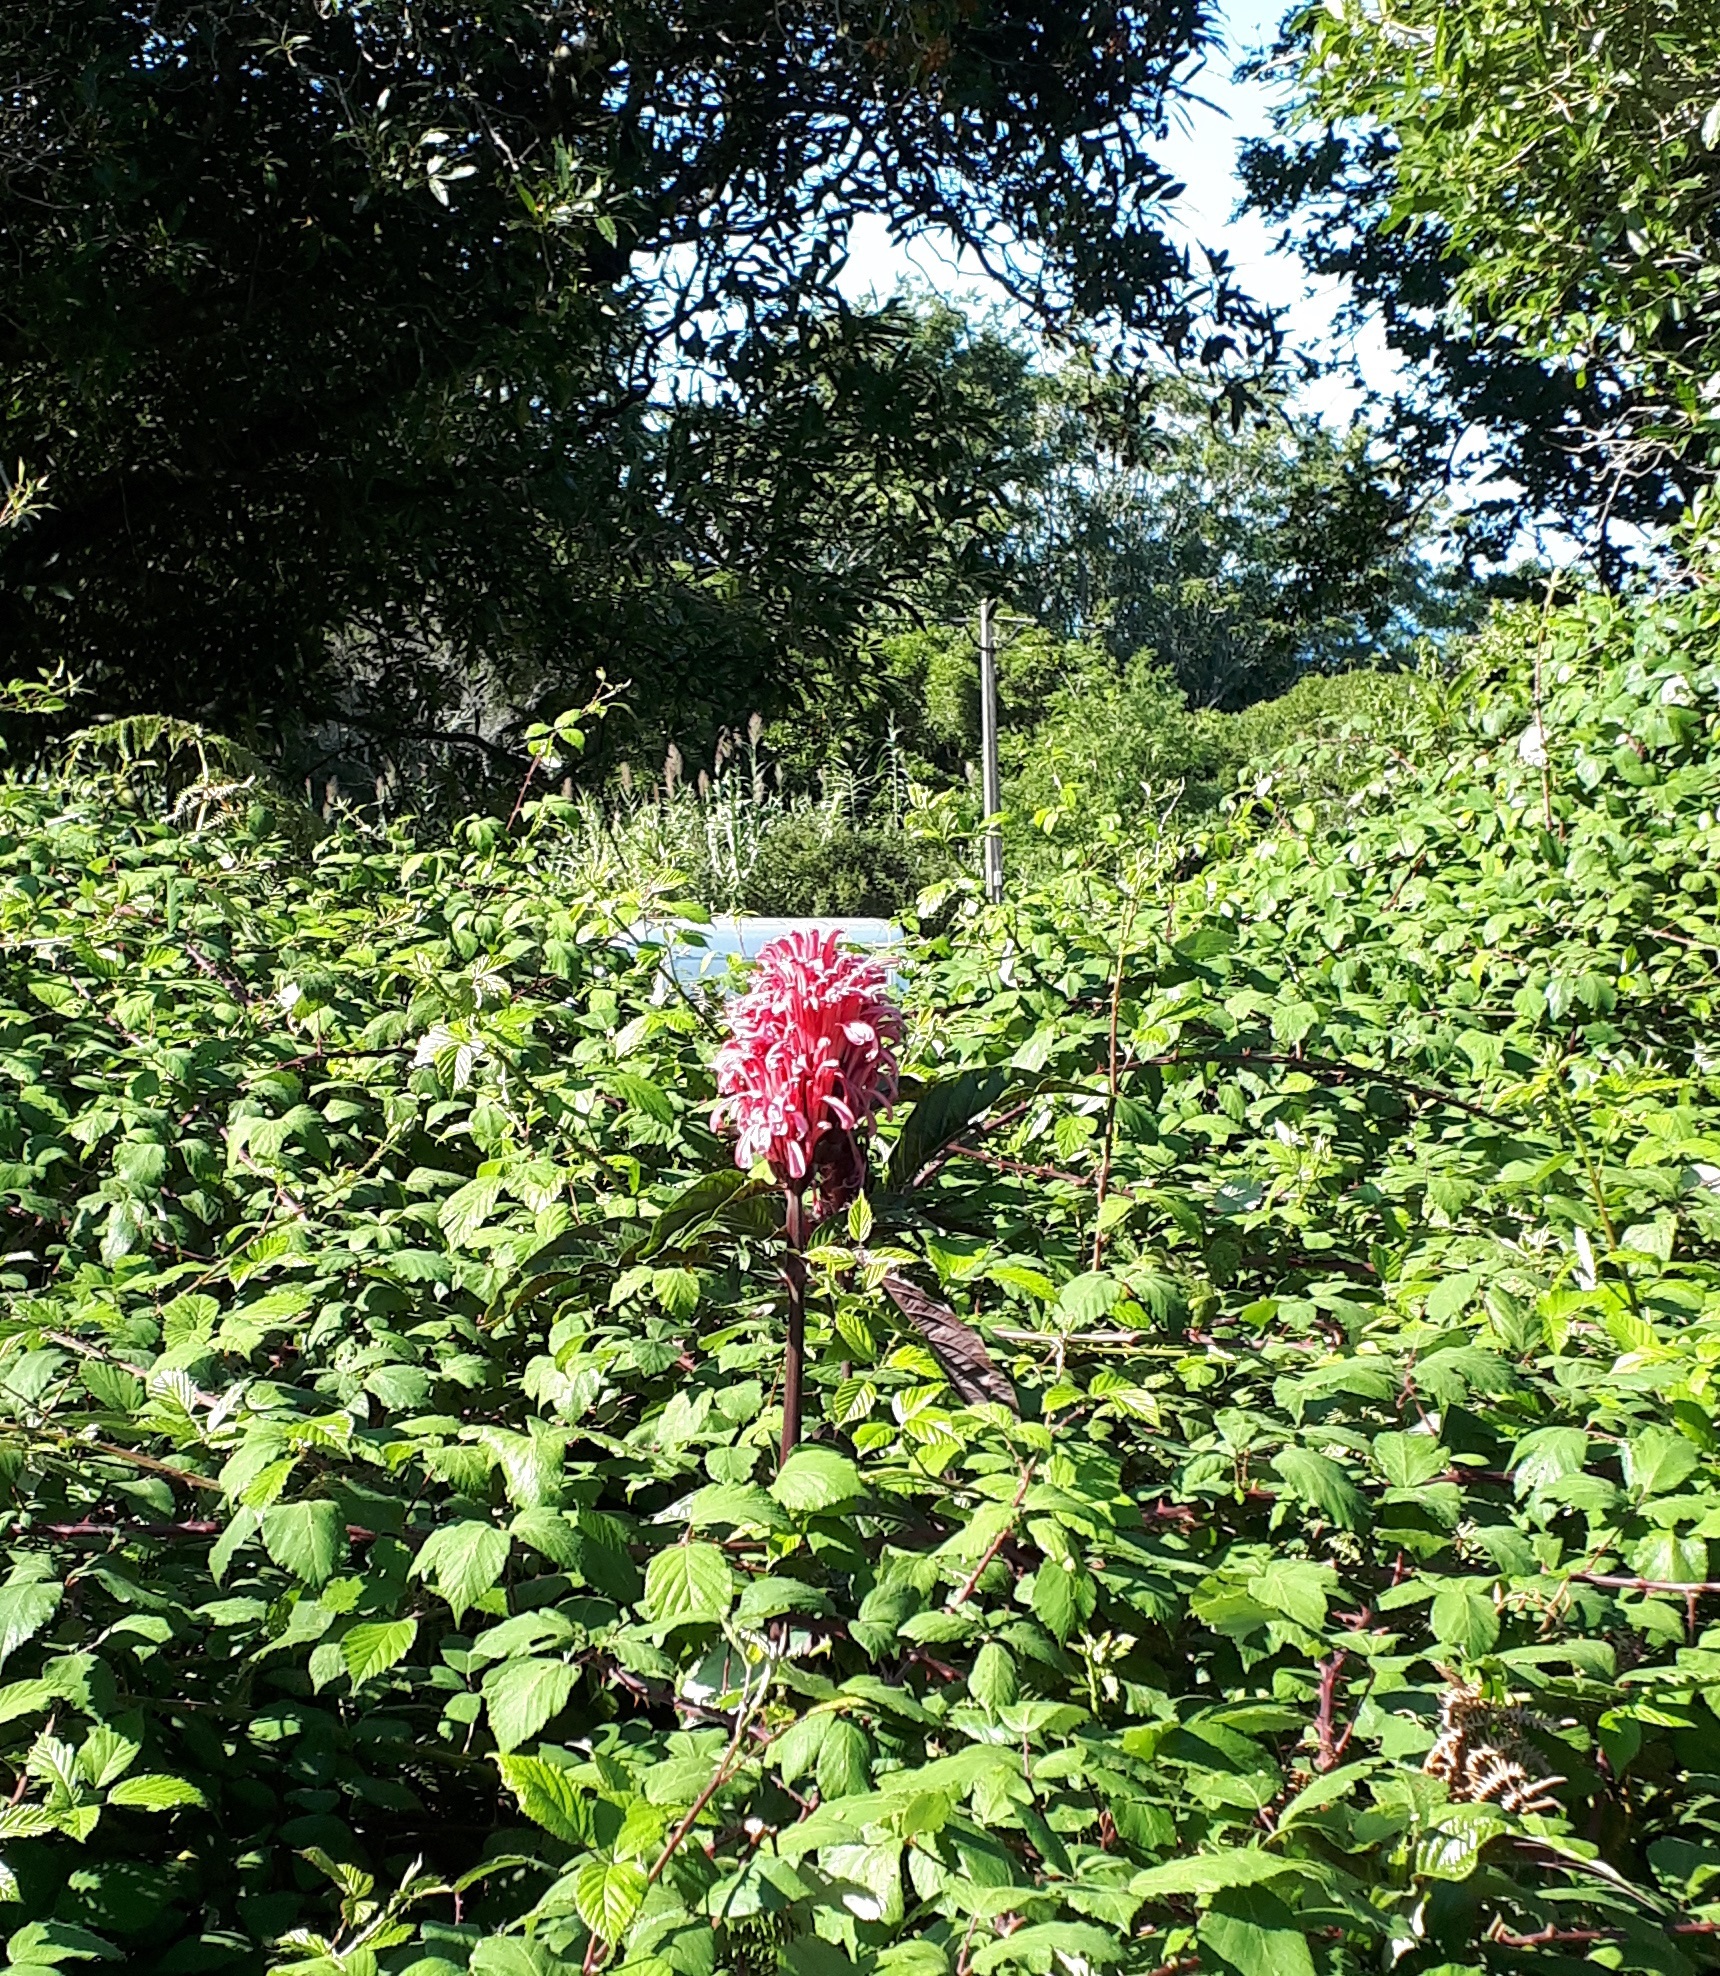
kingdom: Plantae
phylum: Tracheophyta
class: Magnoliopsida
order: Lamiales
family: Acanthaceae
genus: Justicia
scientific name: Justicia carnea
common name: Brazilian-plume
